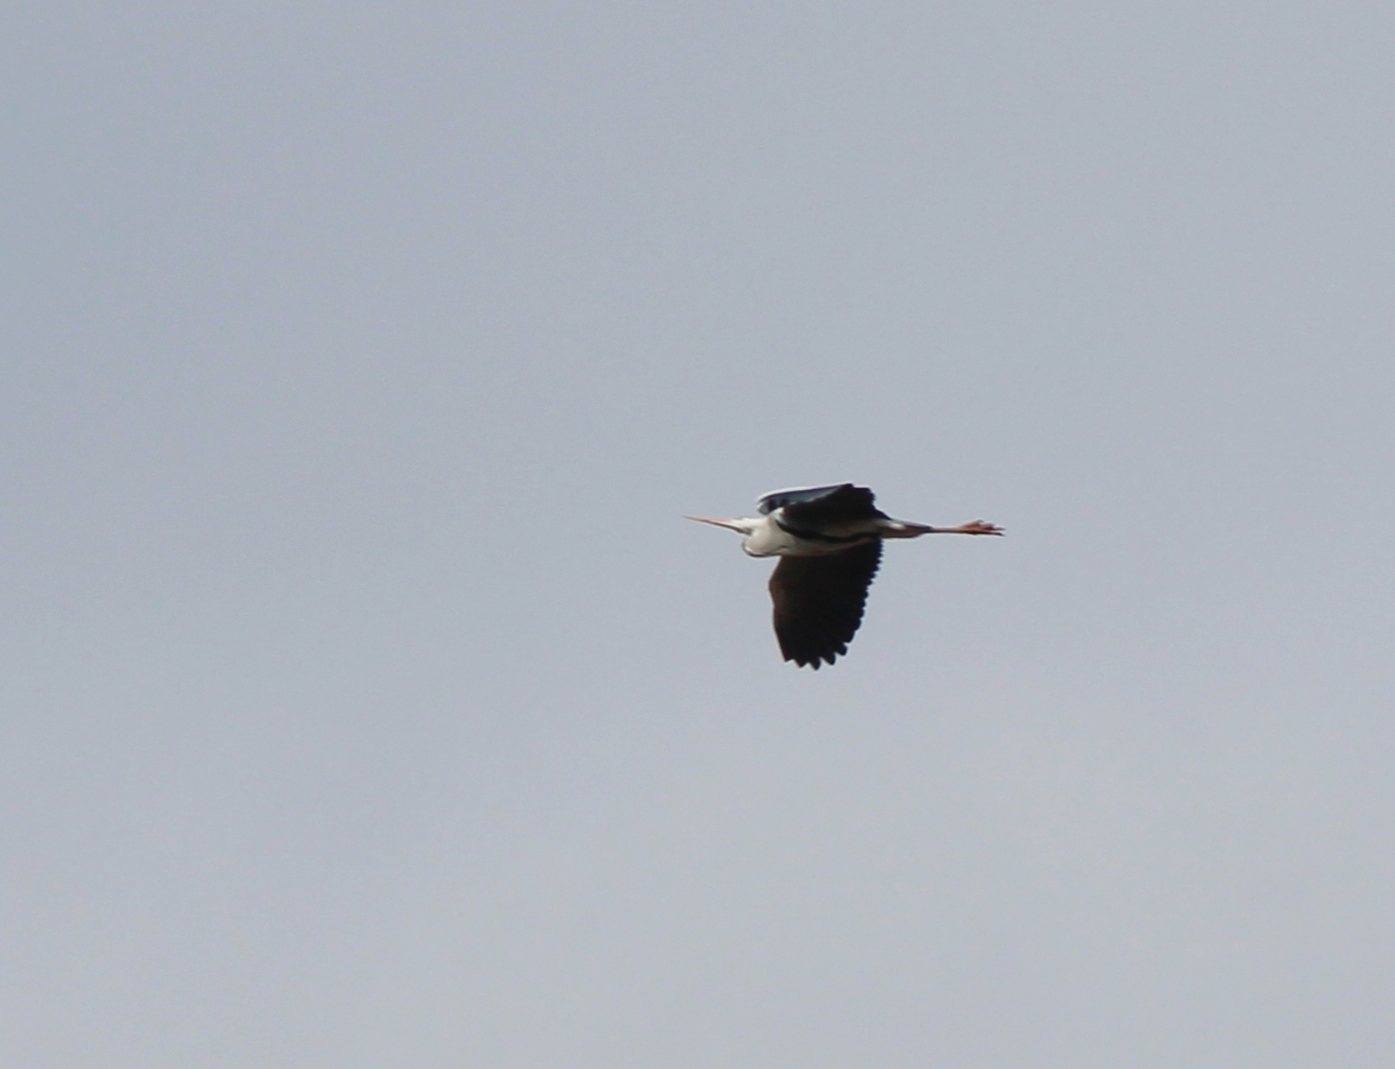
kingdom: Animalia
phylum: Chordata
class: Aves
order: Pelecaniformes
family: Ardeidae
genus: Ardea
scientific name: Ardea cinerea
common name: Grey heron
